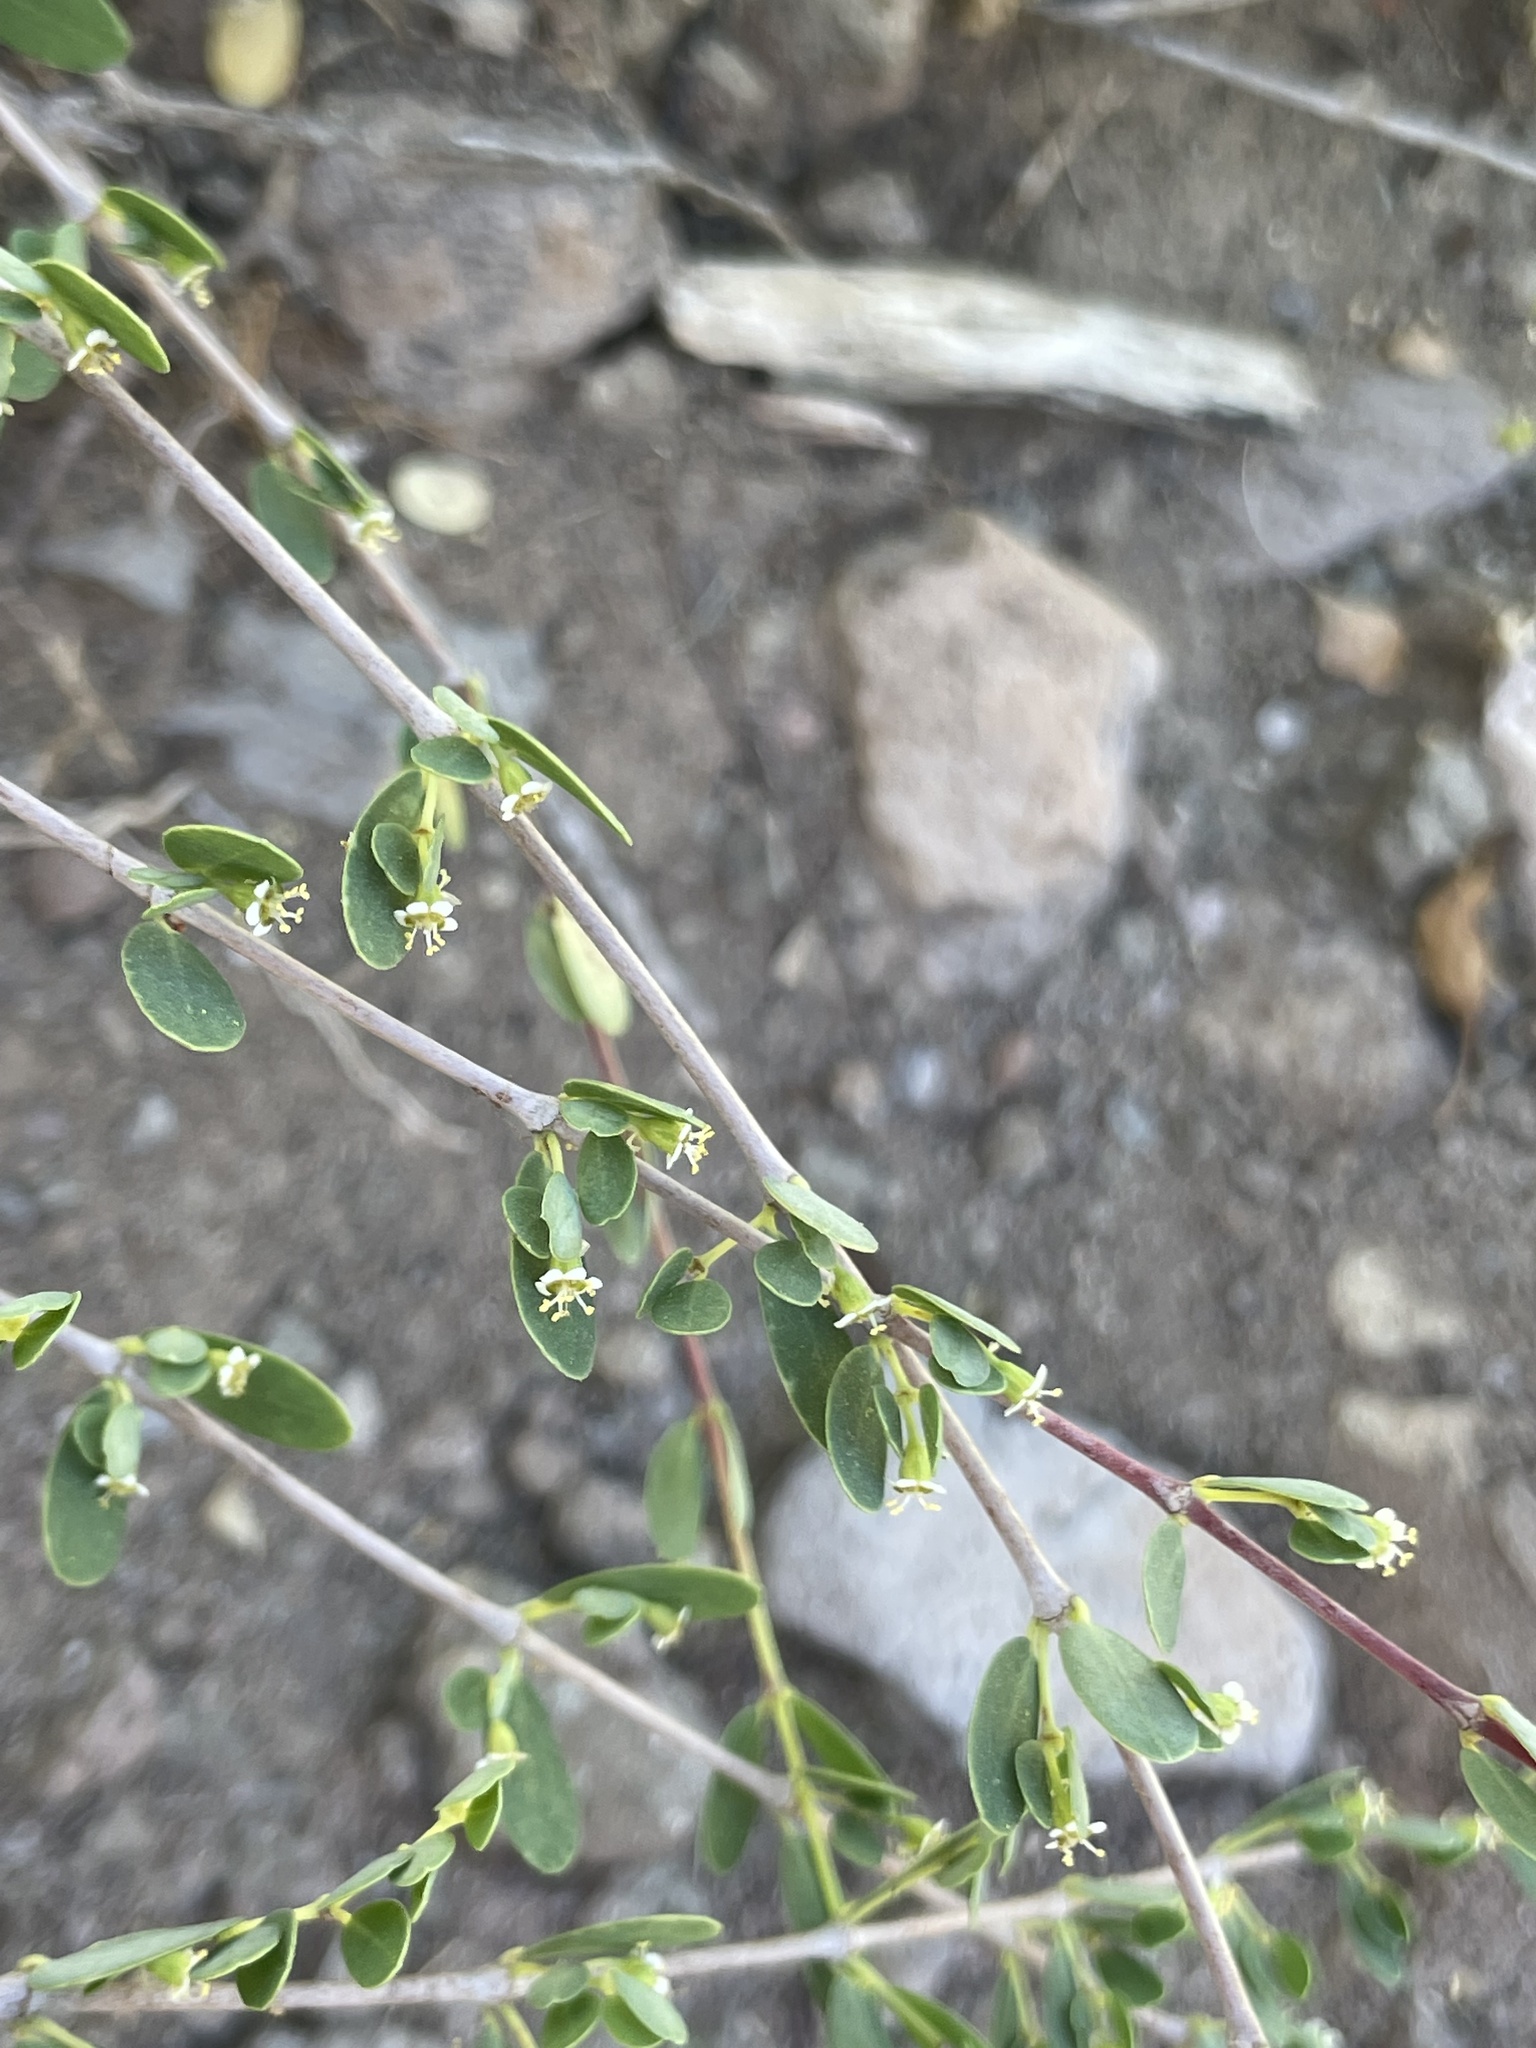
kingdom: Plantae
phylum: Tracheophyta
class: Magnoliopsida
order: Malpighiales
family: Euphorbiaceae
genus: Euphorbia
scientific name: Euphorbia magdalenae
